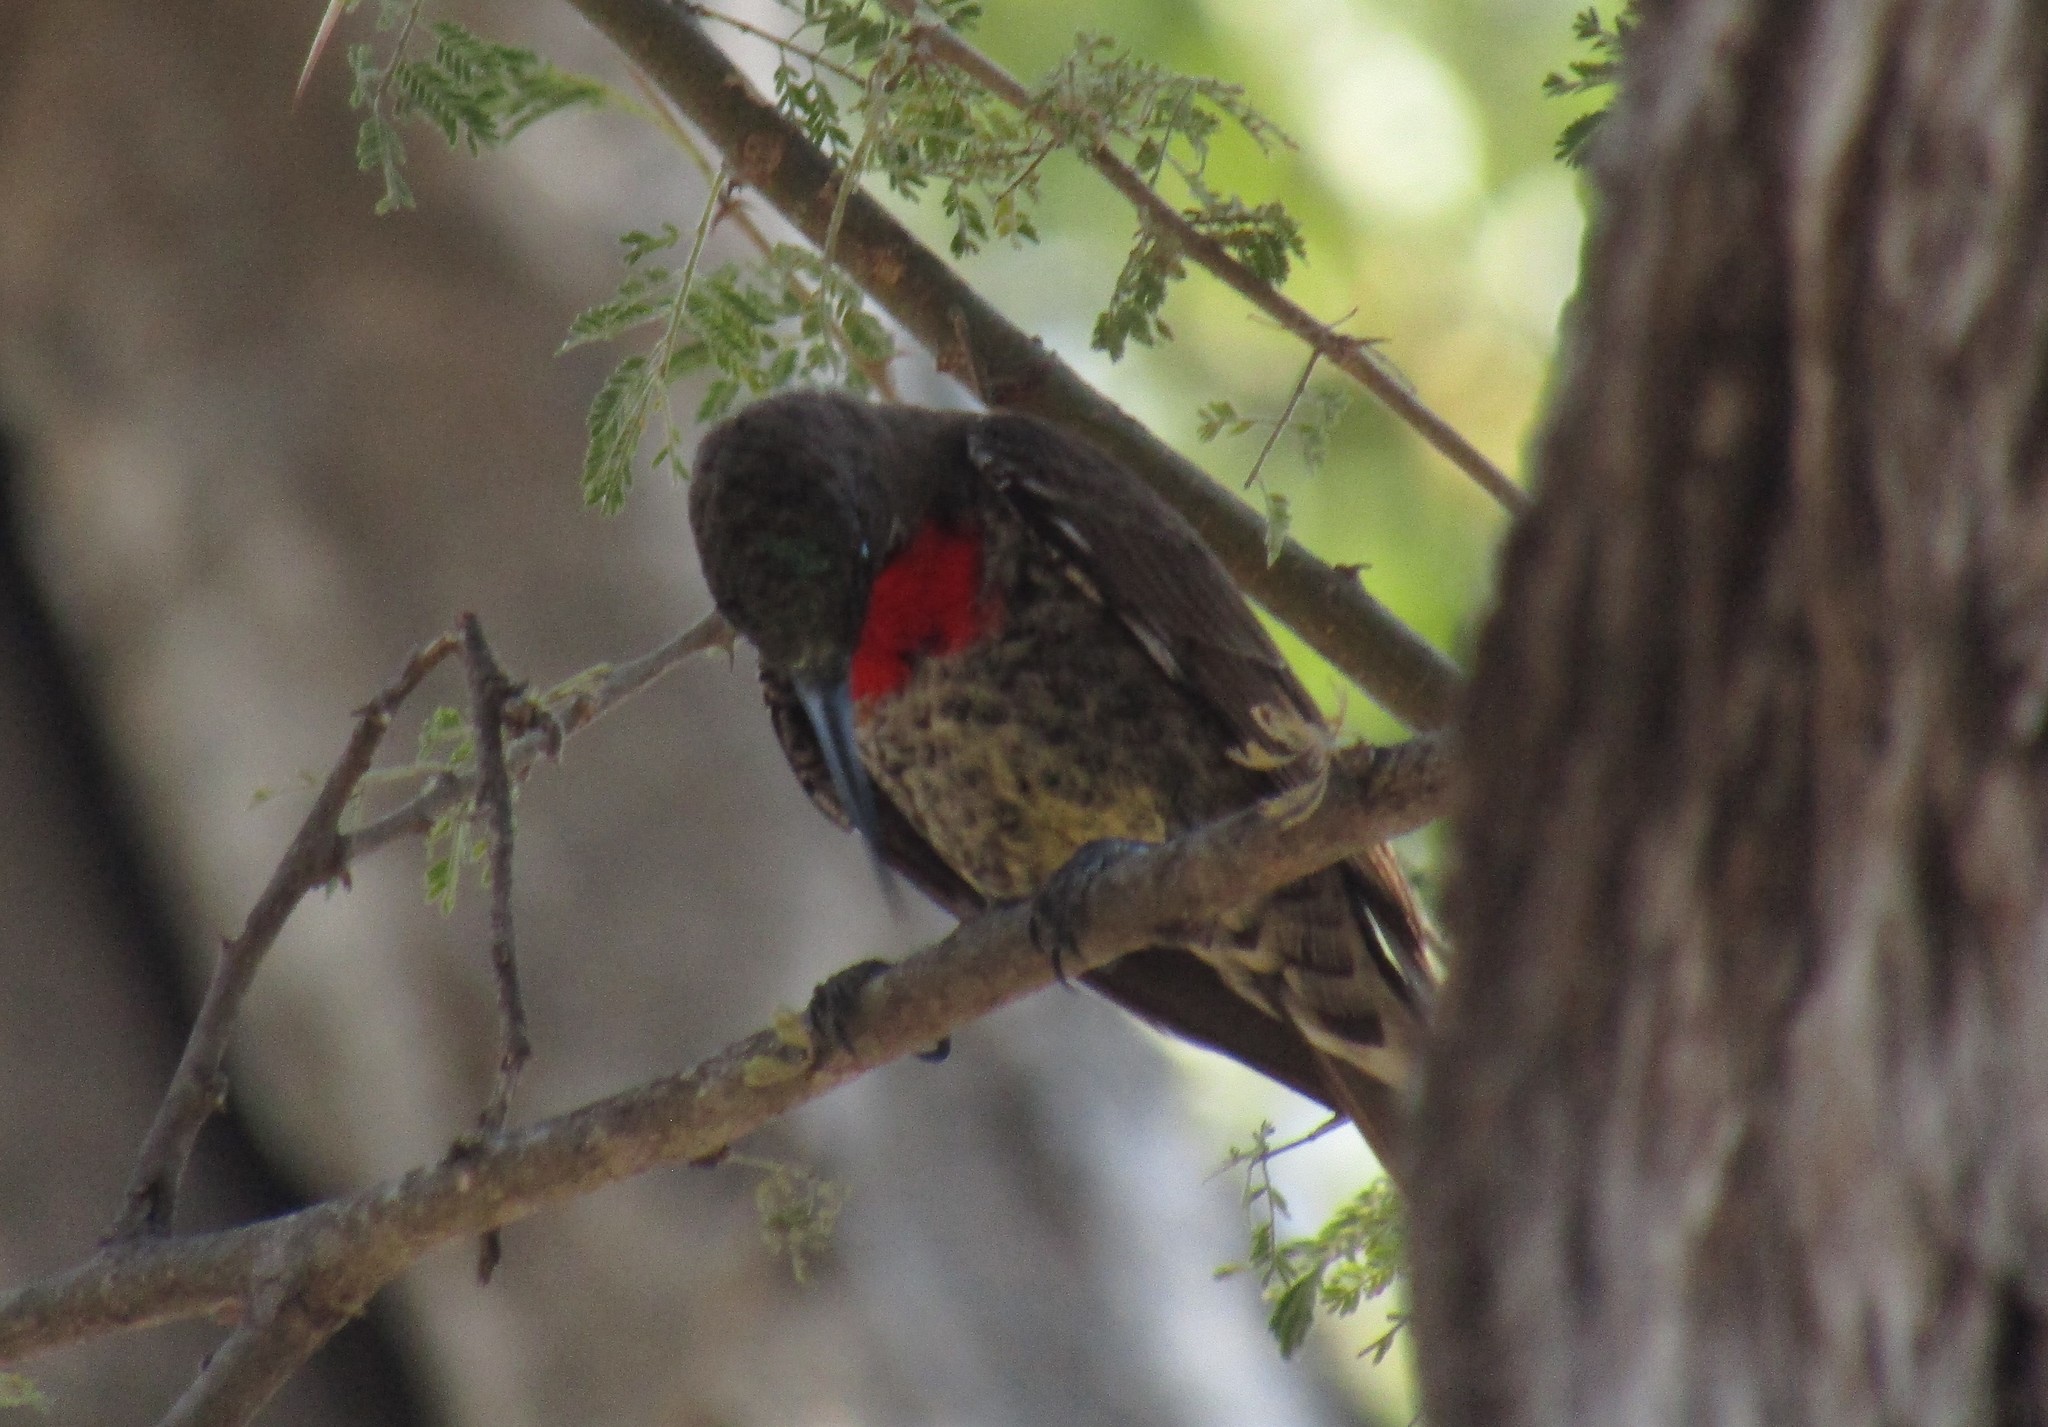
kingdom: Animalia
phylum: Chordata
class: Aves
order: Passeriformes
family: Nectariniidae
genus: Chalcomitra
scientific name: Chalcomitra senegalensis
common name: Scarlet-chested sunbird
